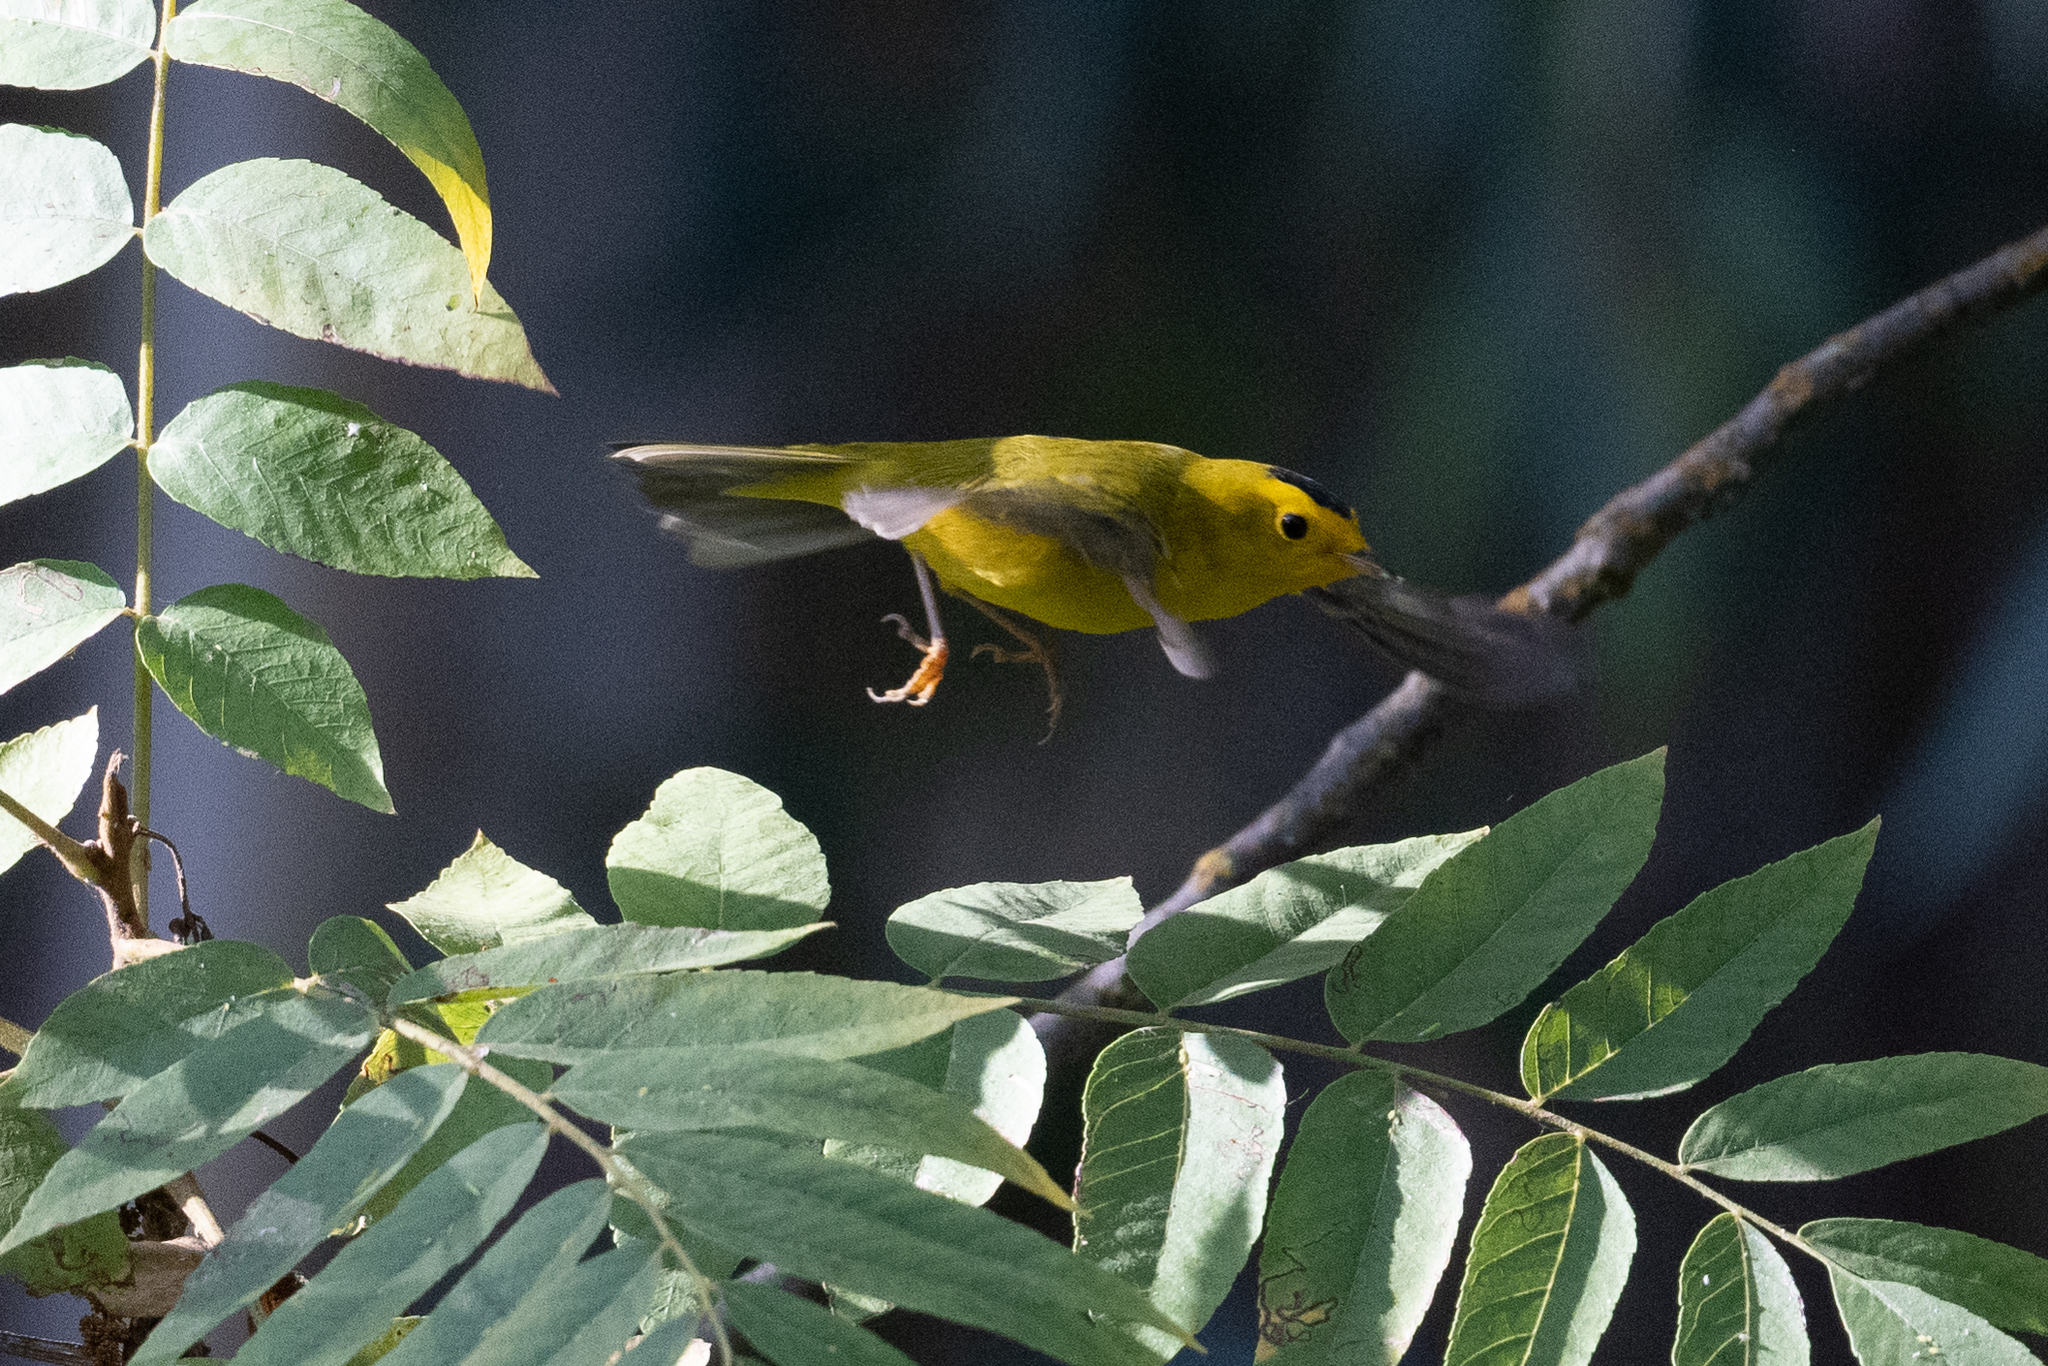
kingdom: Animalia
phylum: Chordata
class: Aves
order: Passeriformes
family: Parulidae
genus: Cardellina
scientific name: Cardellina pusilla
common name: Wilson's warbler
